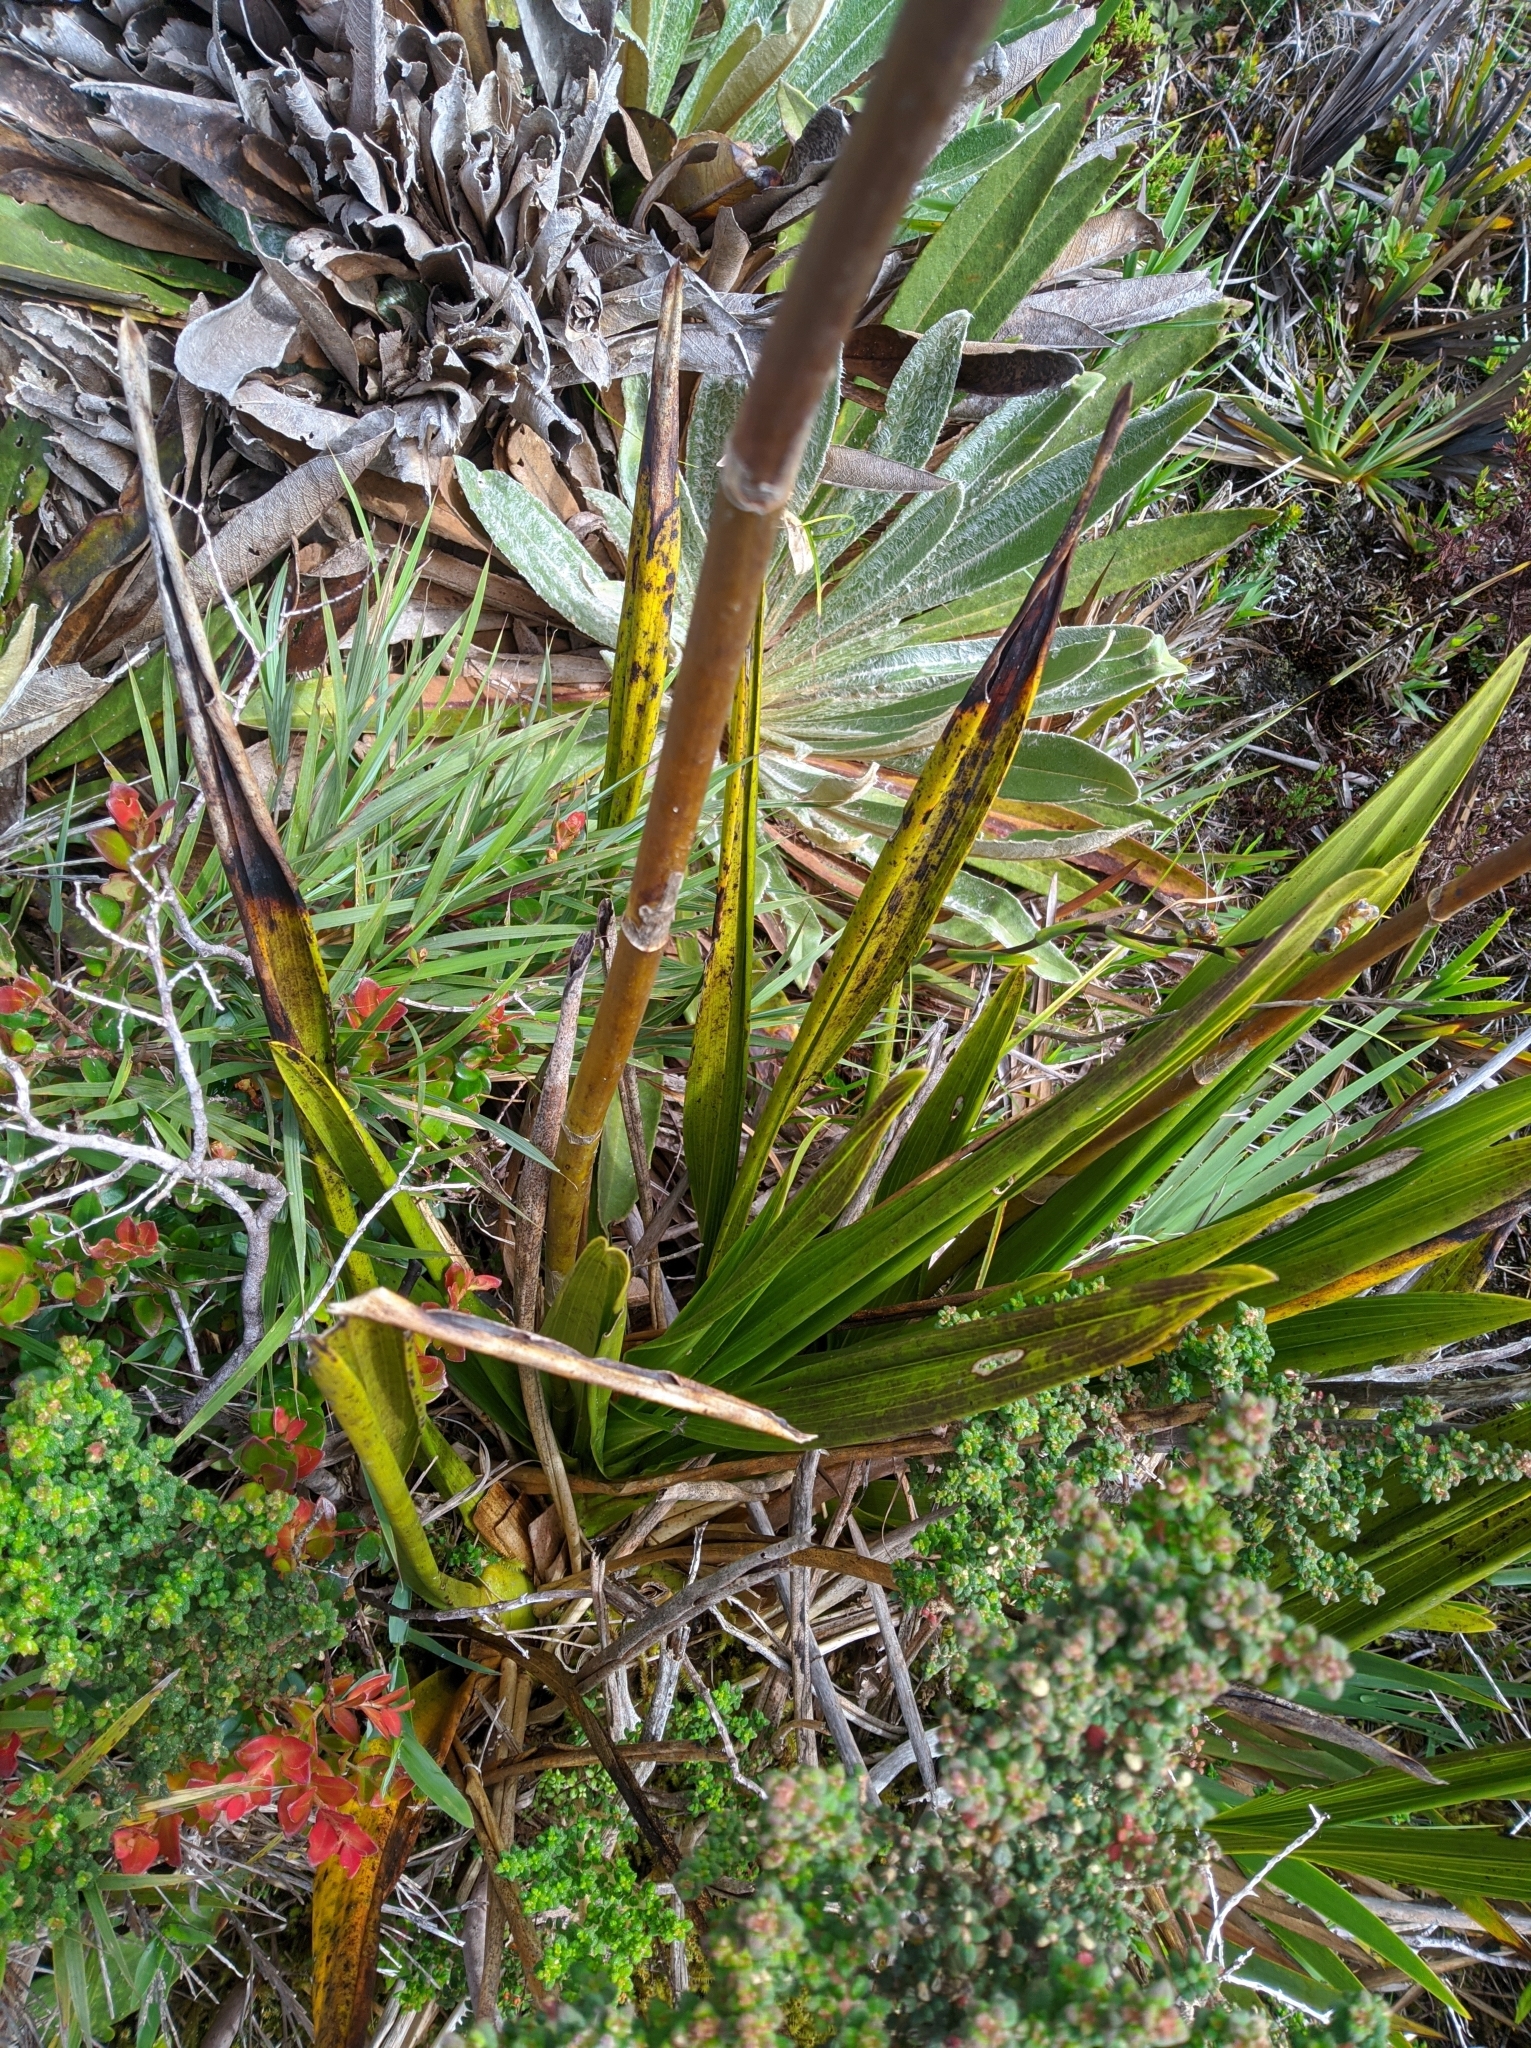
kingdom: Plantae
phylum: Tracheophyta
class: Liliopsida
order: Asparagales
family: Orchidaceae
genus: Cyrtochilum
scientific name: Cyrtochilum ramosissimum
